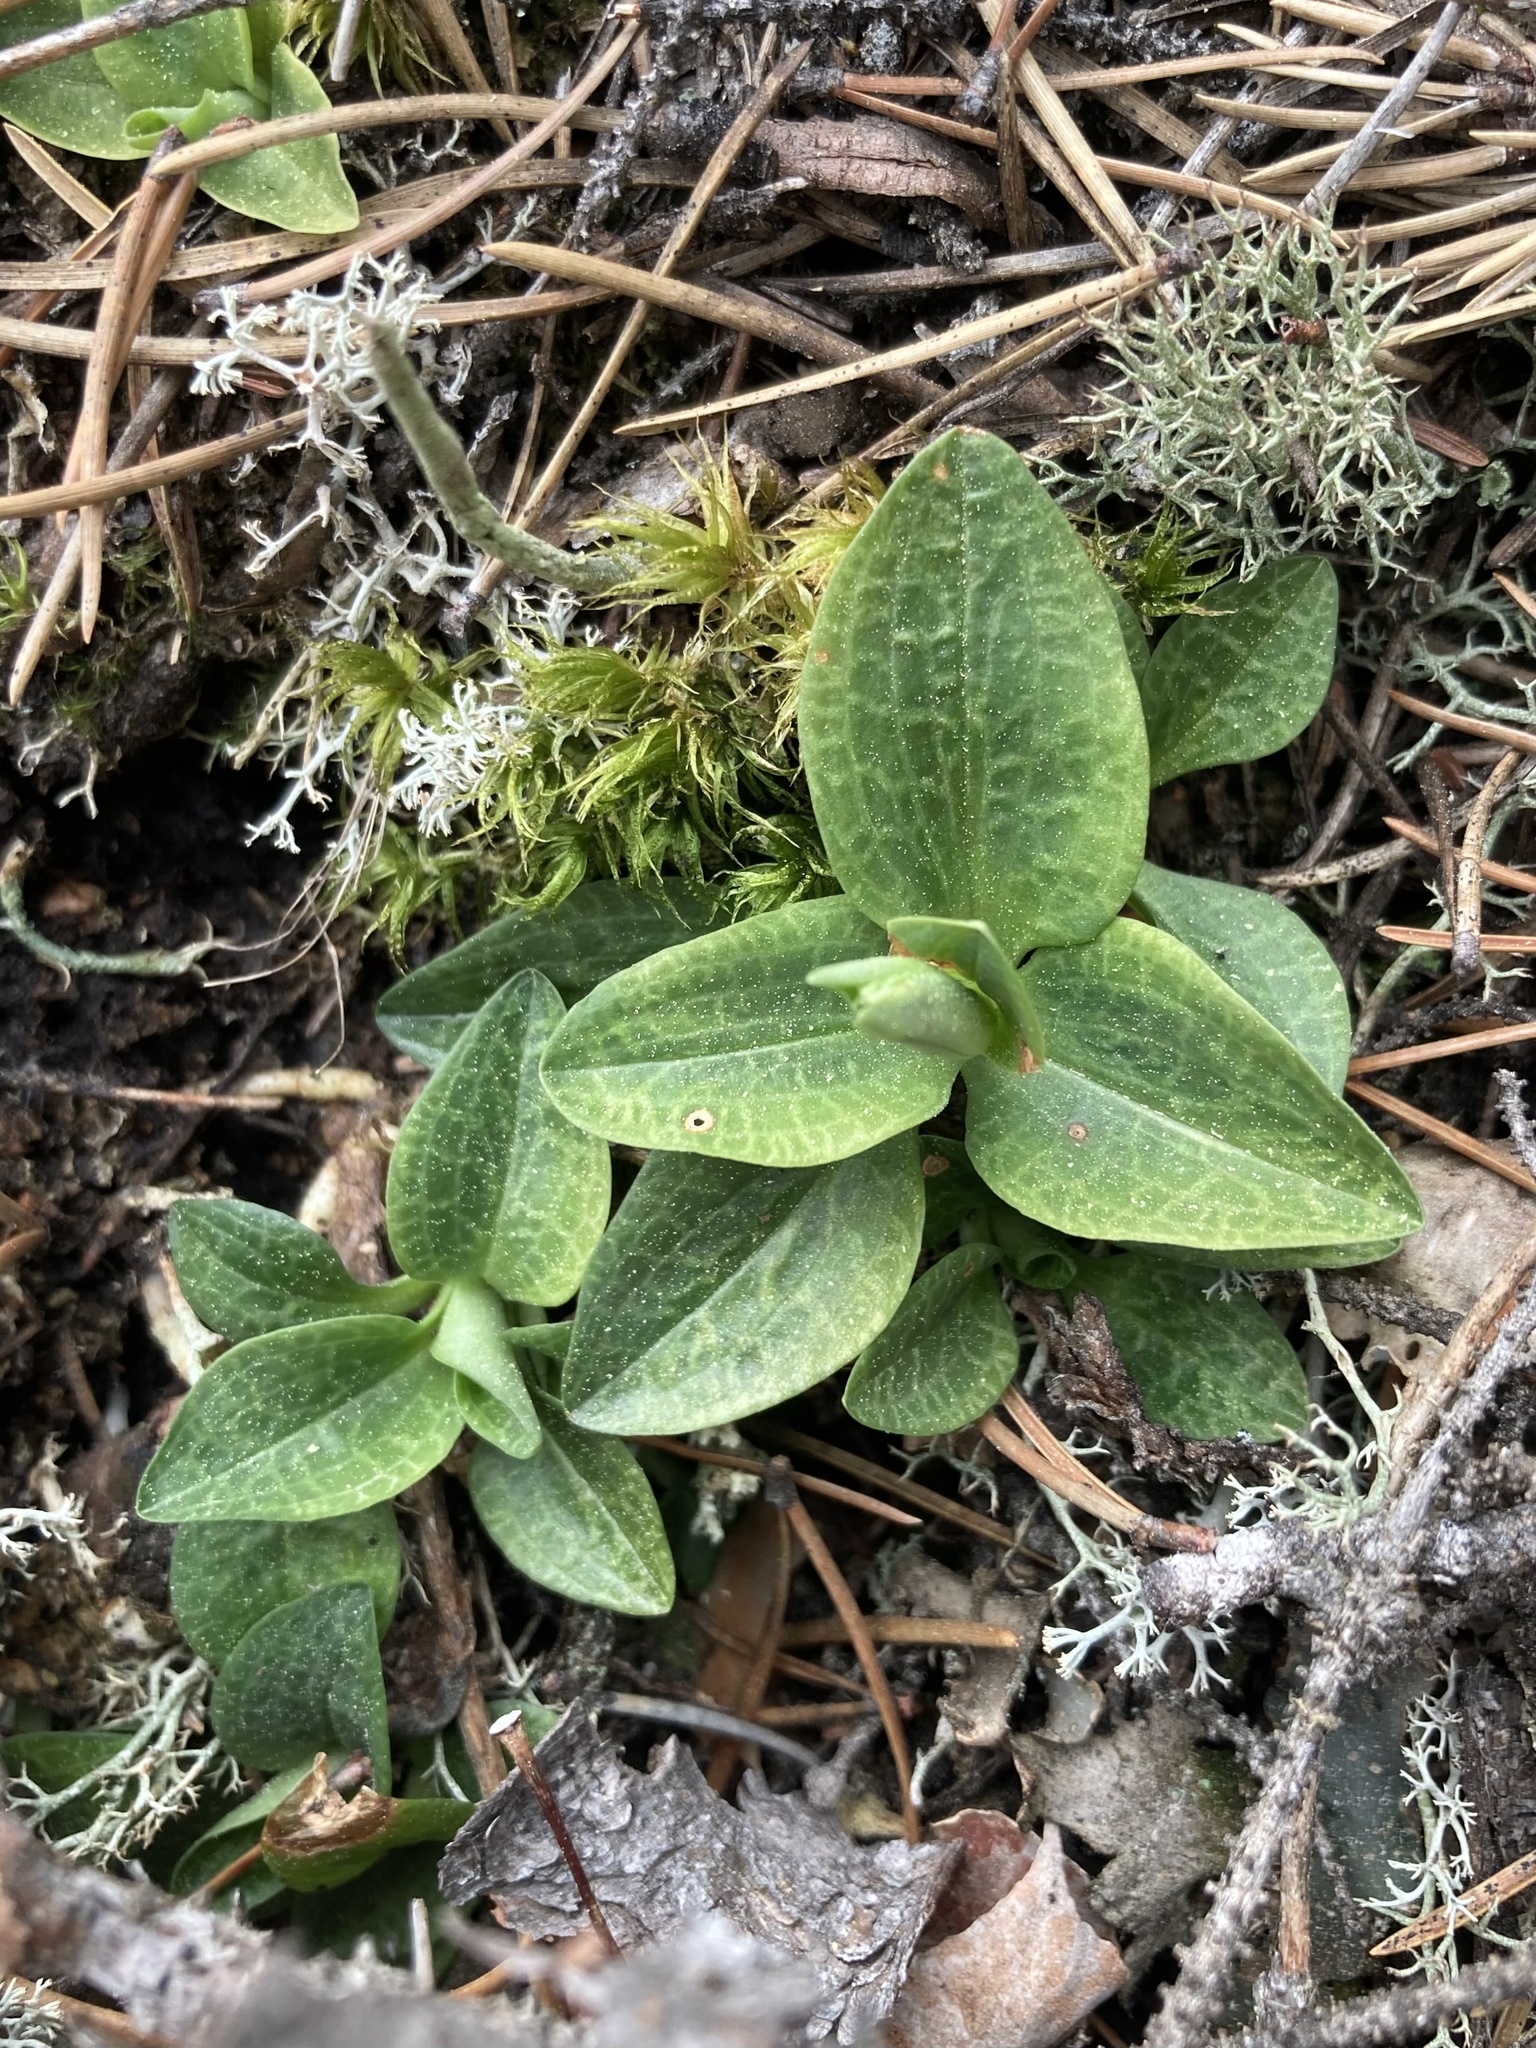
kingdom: Plantae
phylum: Tracheophyta
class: Liliopsida
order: Asparagales
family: Orchidaceae
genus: Goodyera
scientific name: Goodyera repens
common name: Creeping lady's-tresses
